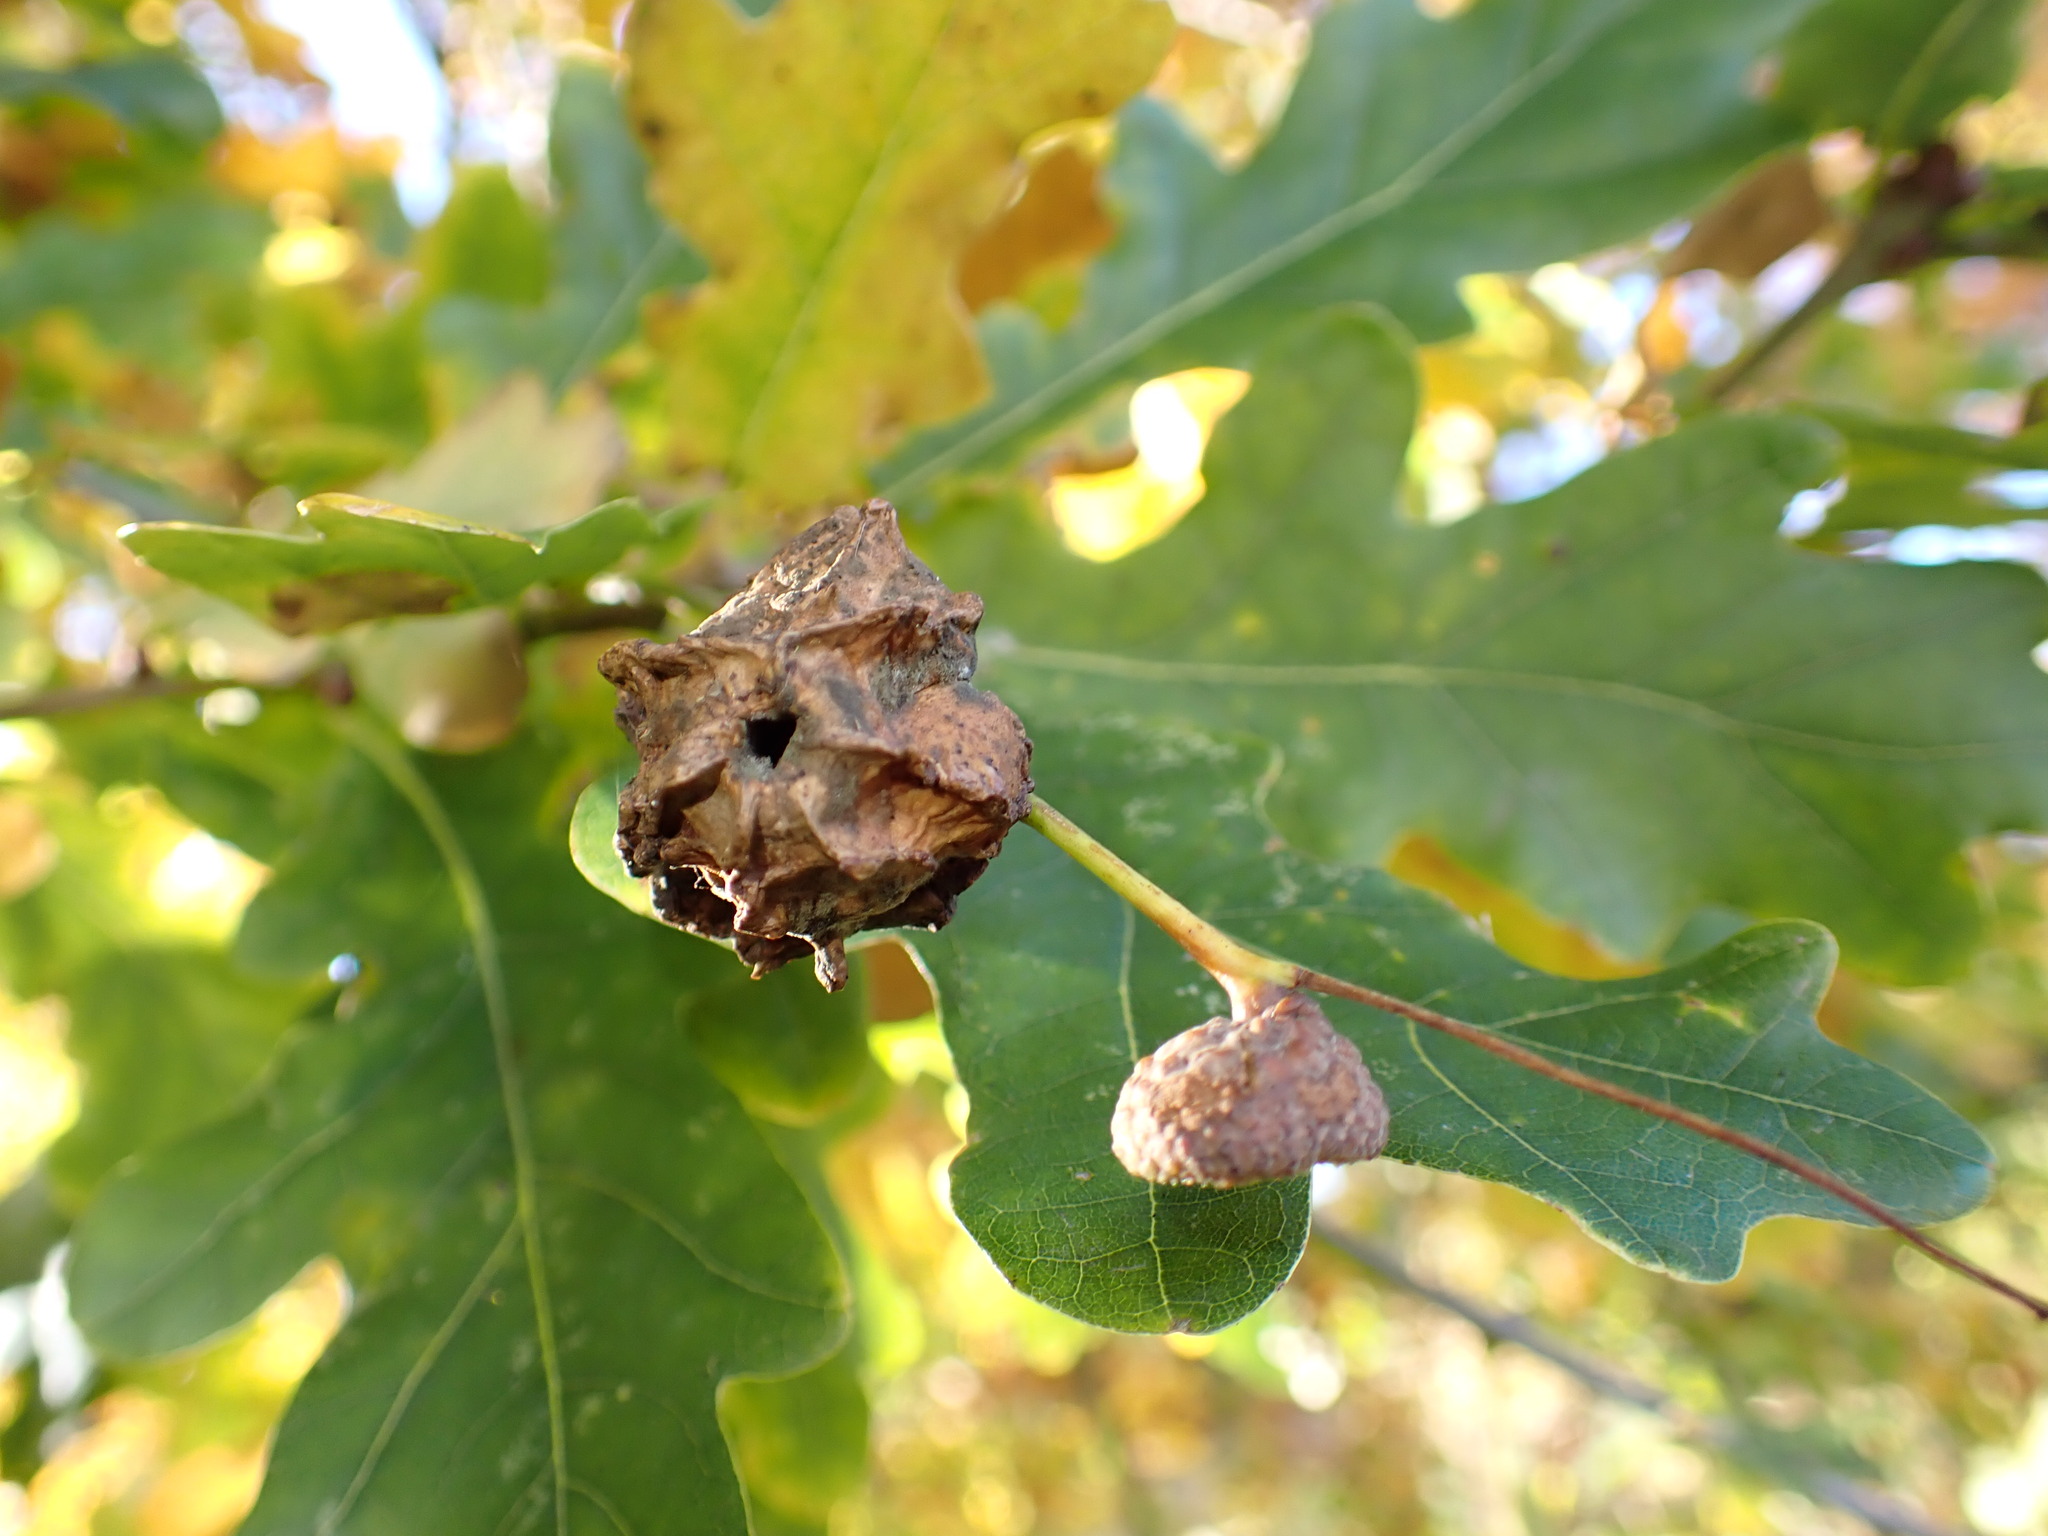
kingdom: Animalia
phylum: Arthropoda
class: Insecta
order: Hymenoptera
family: Cynipidae
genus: Andricus
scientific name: Andricus quercuscalicis
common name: Knopper gall
